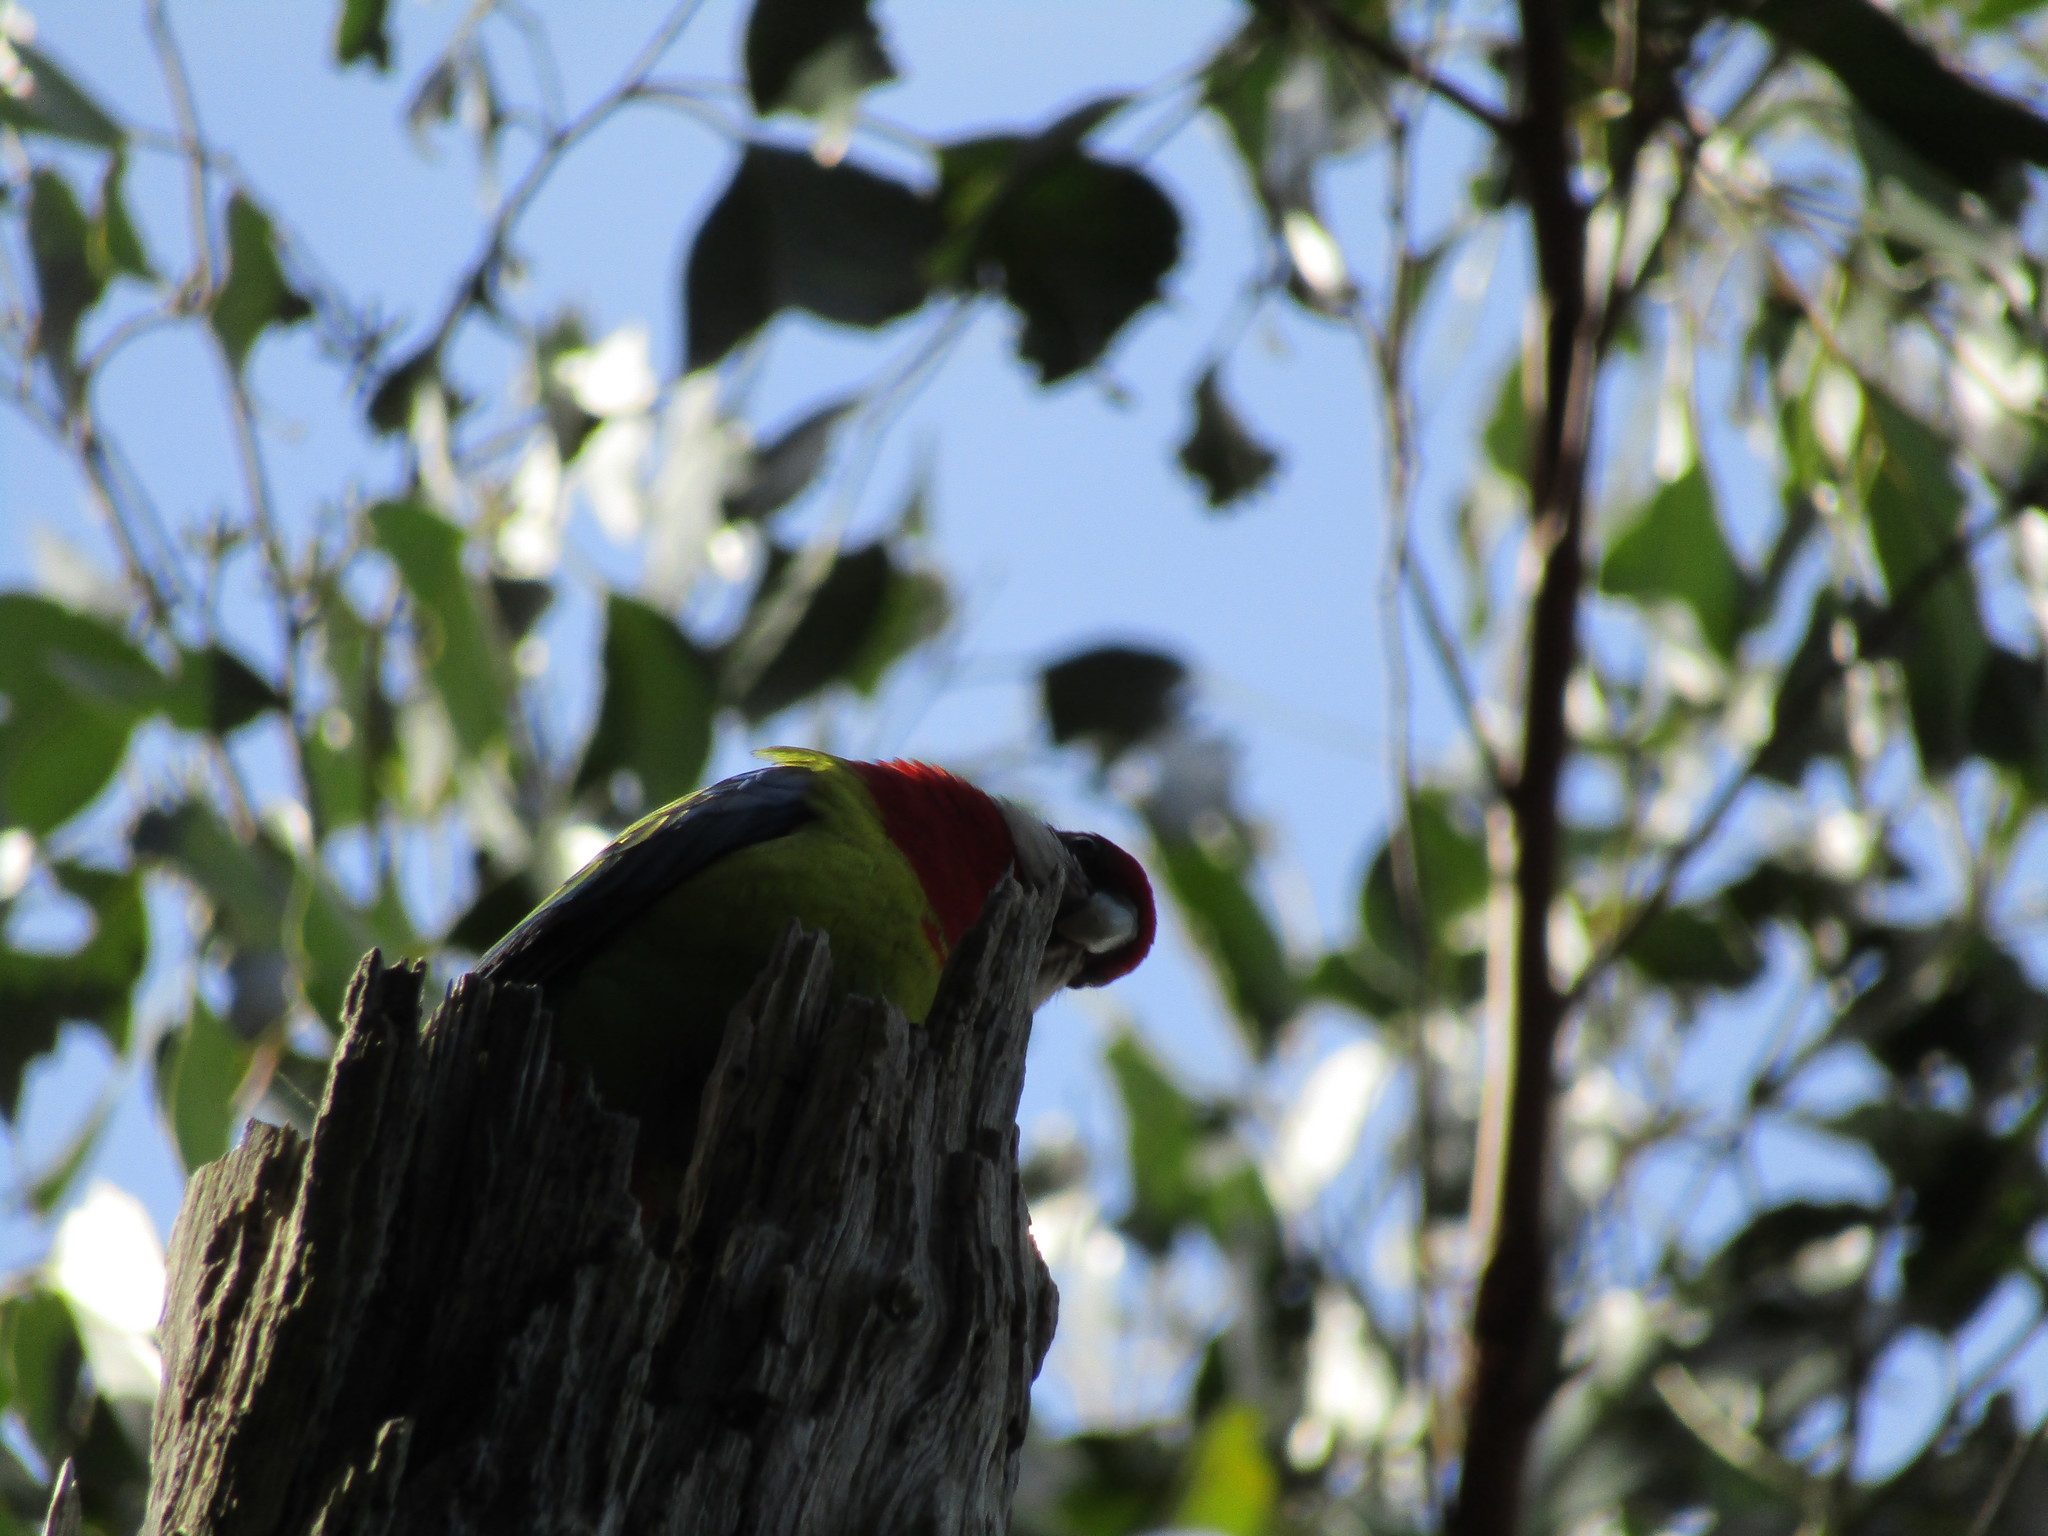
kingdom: Animalia
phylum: Chordata
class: Aves
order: Psittaciformes
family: Psittacidae
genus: Platycercus
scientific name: Platycercus eximius
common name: Eastern rosella
